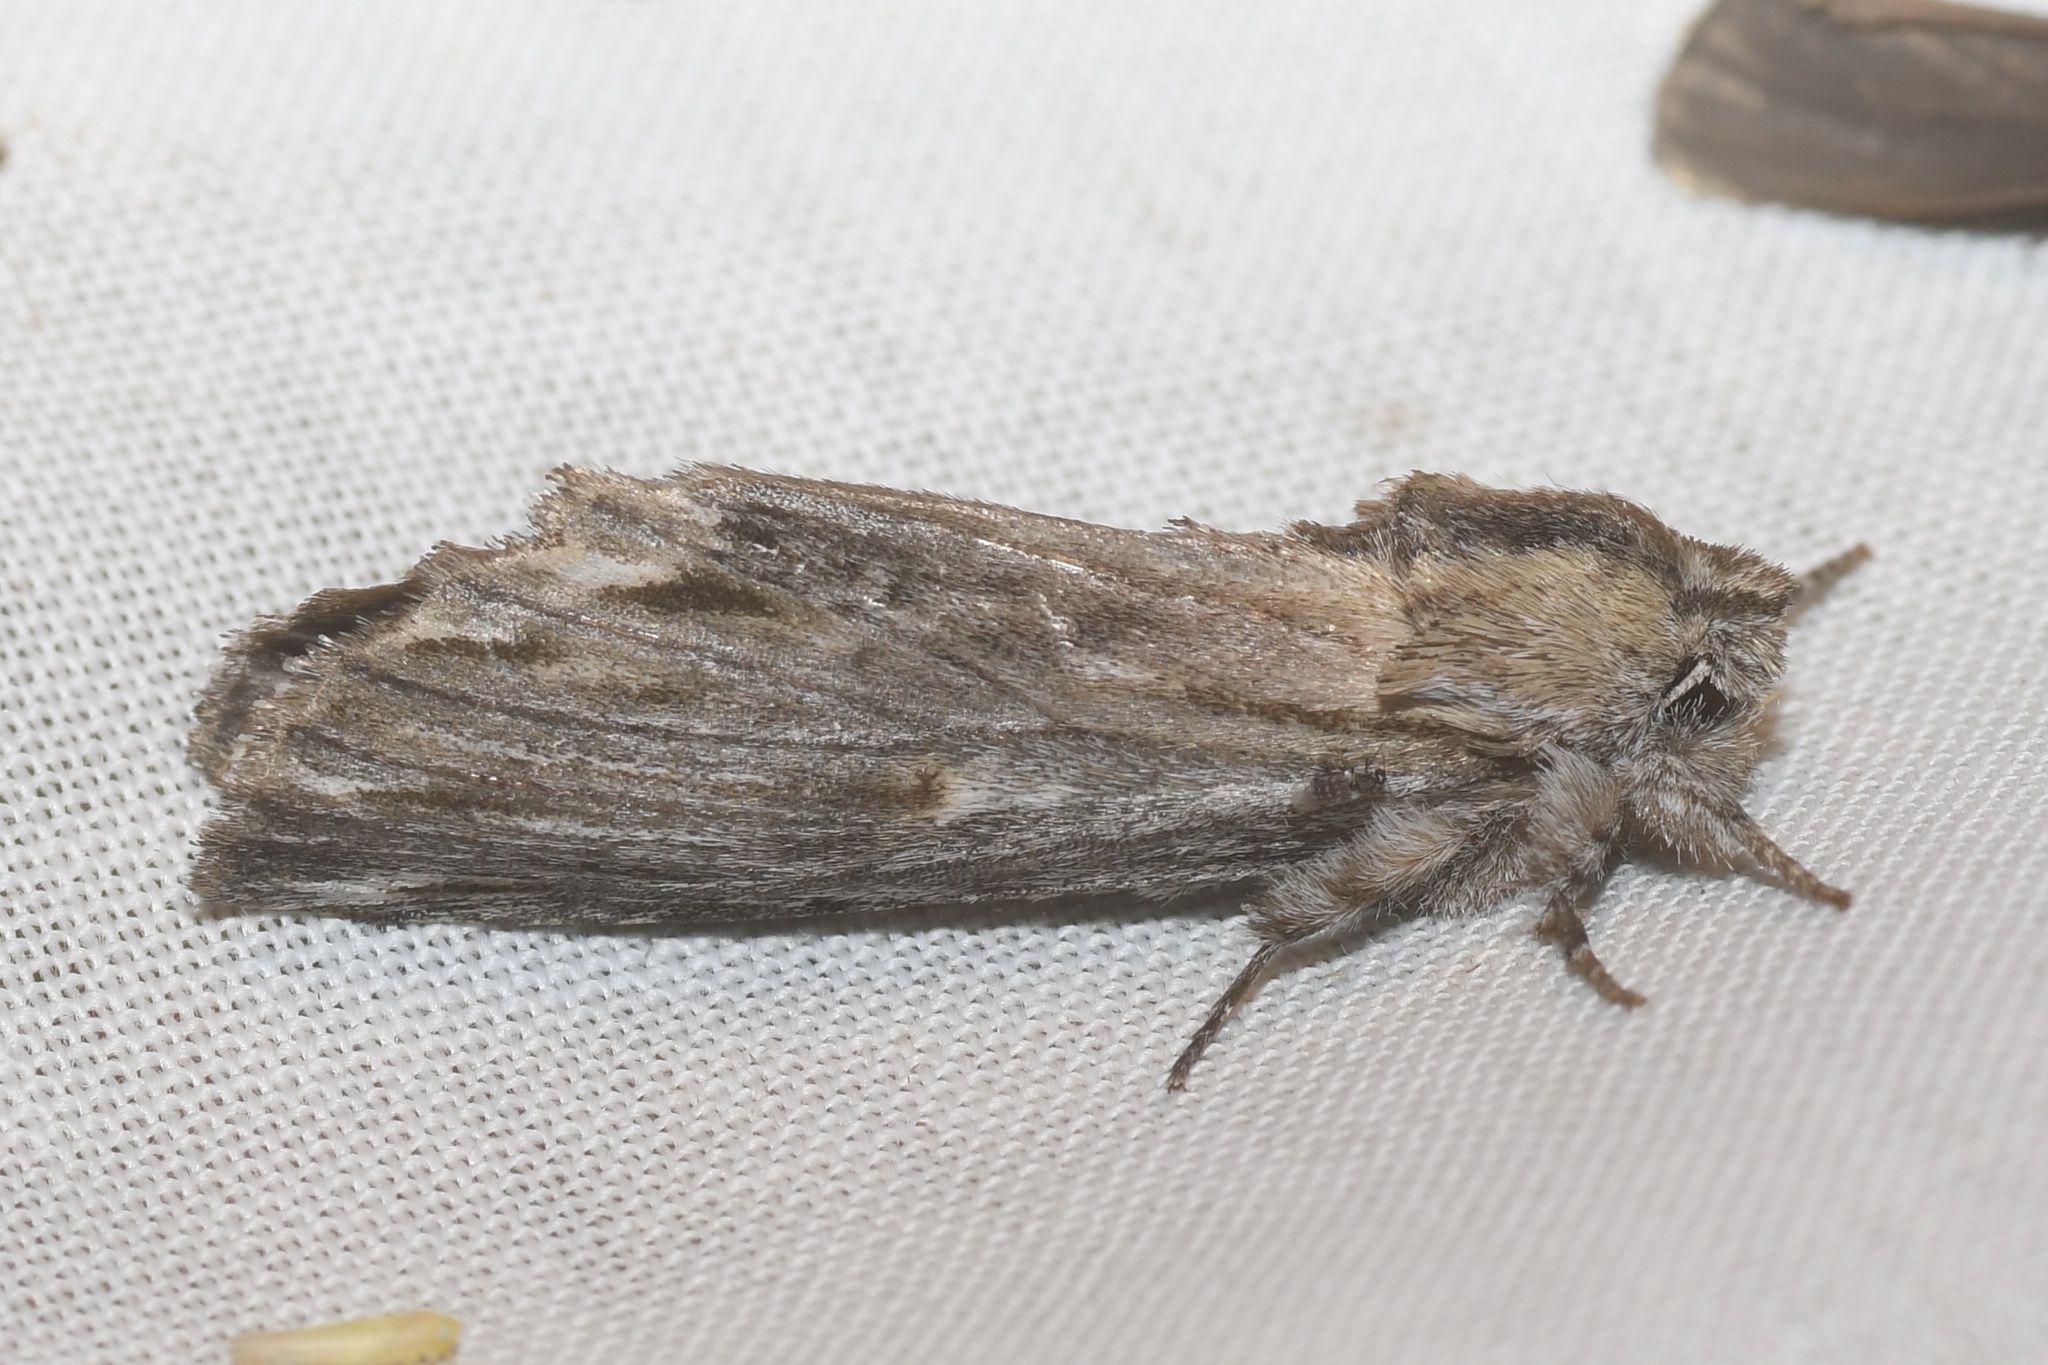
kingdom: Animalia
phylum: Arthropoda
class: Insecta
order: Lepidoptera
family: Notodontidae
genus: Oligocentria
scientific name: Oligocentria Ianassa lignicolor
